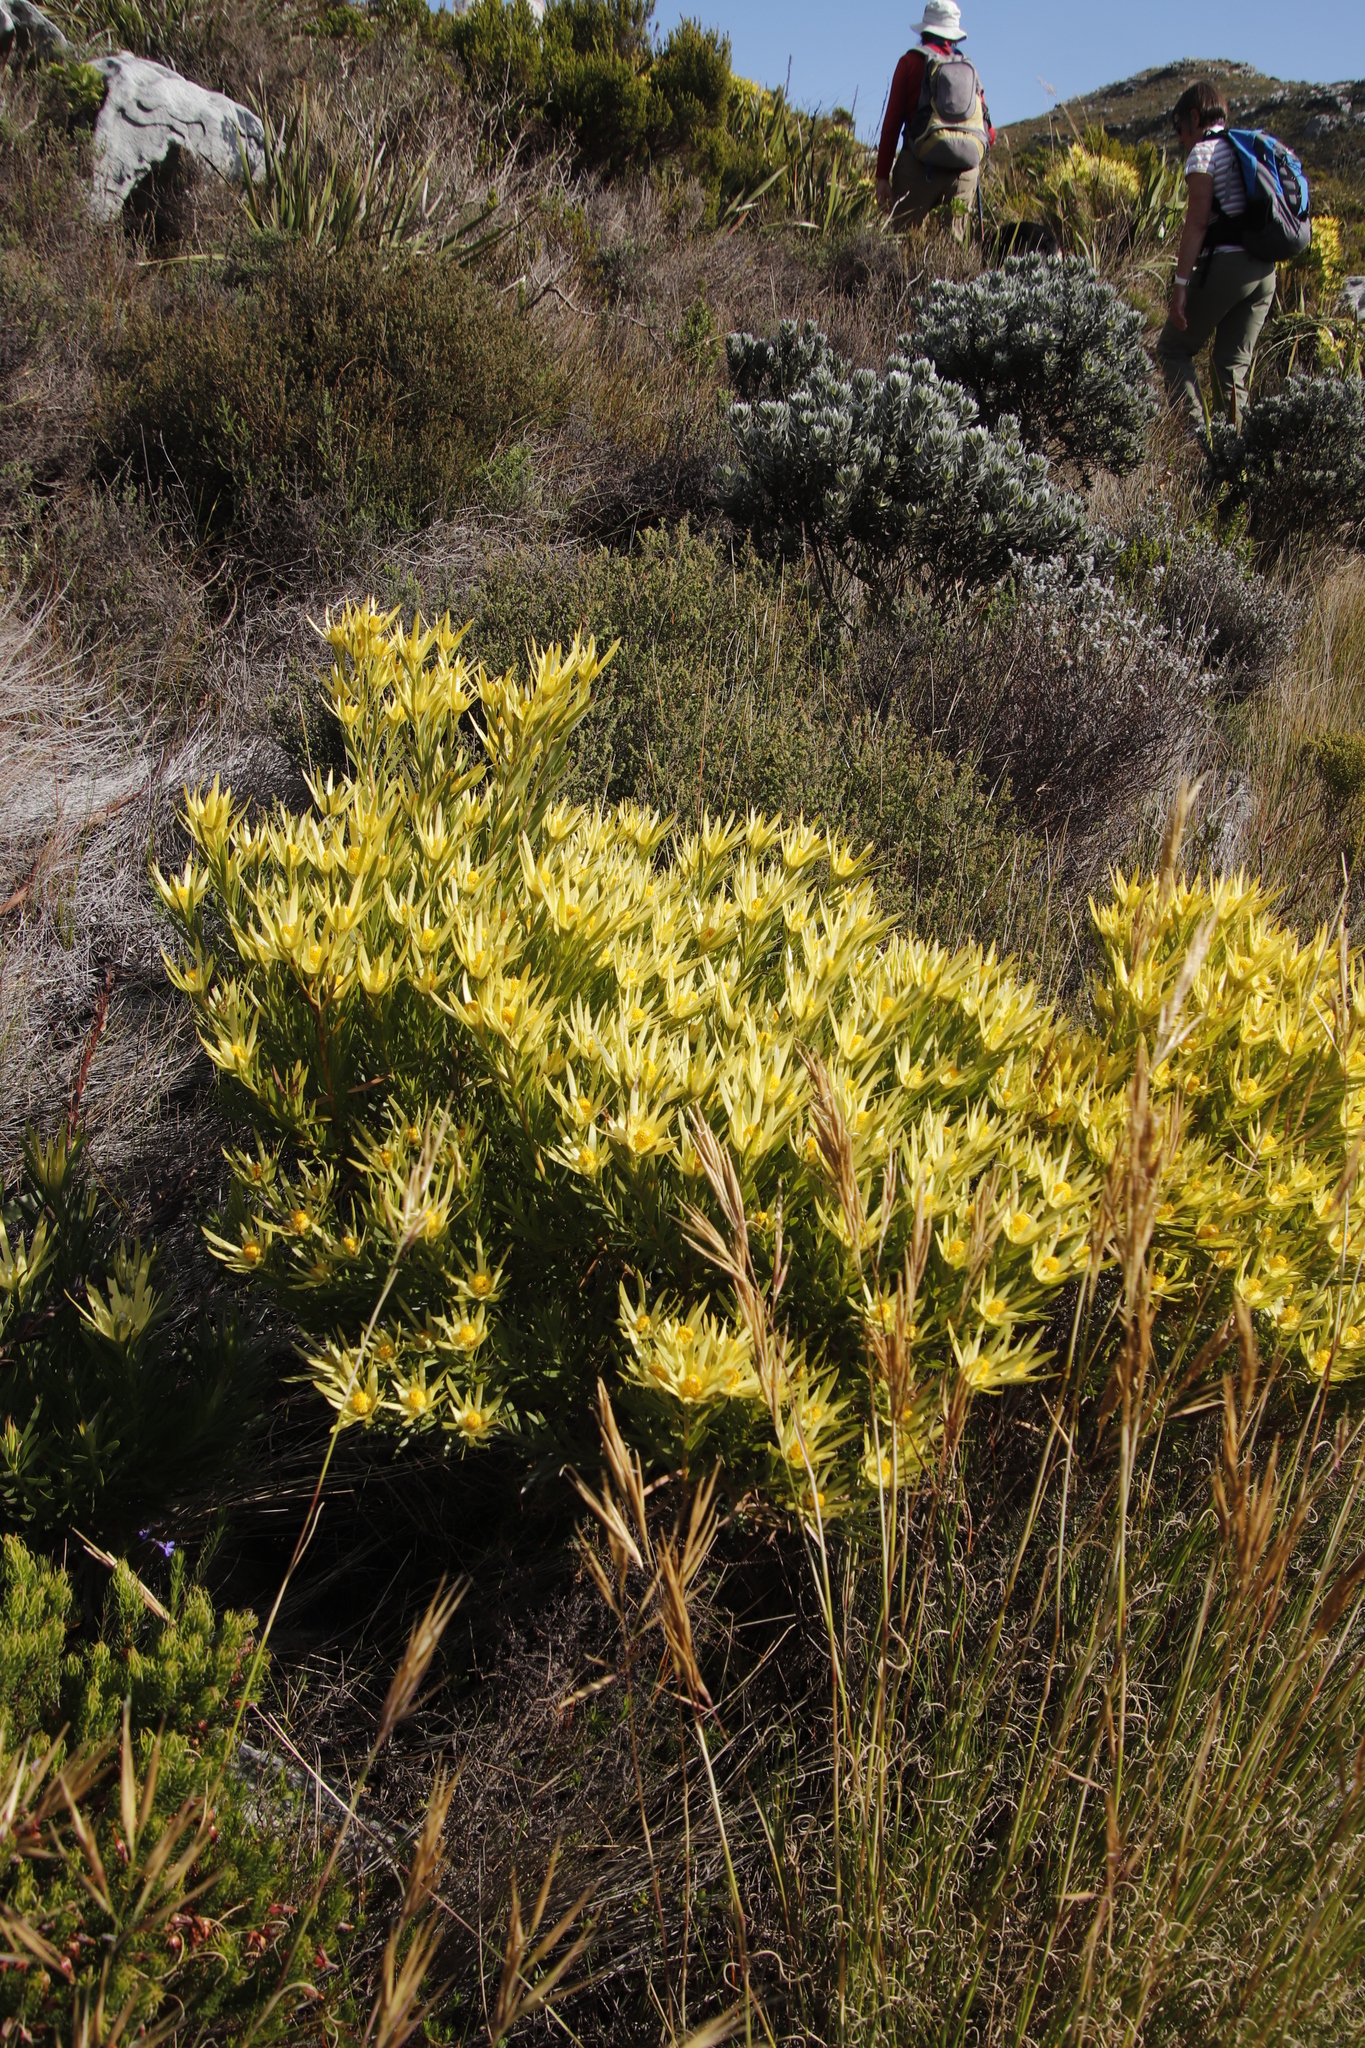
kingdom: Plantae
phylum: Tracheophyta
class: Magnoliopsida
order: Proteales
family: Proteaceae
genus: Leucadendron
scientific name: Leucadendron xanthoconus
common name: Sickle-leaf conebush
